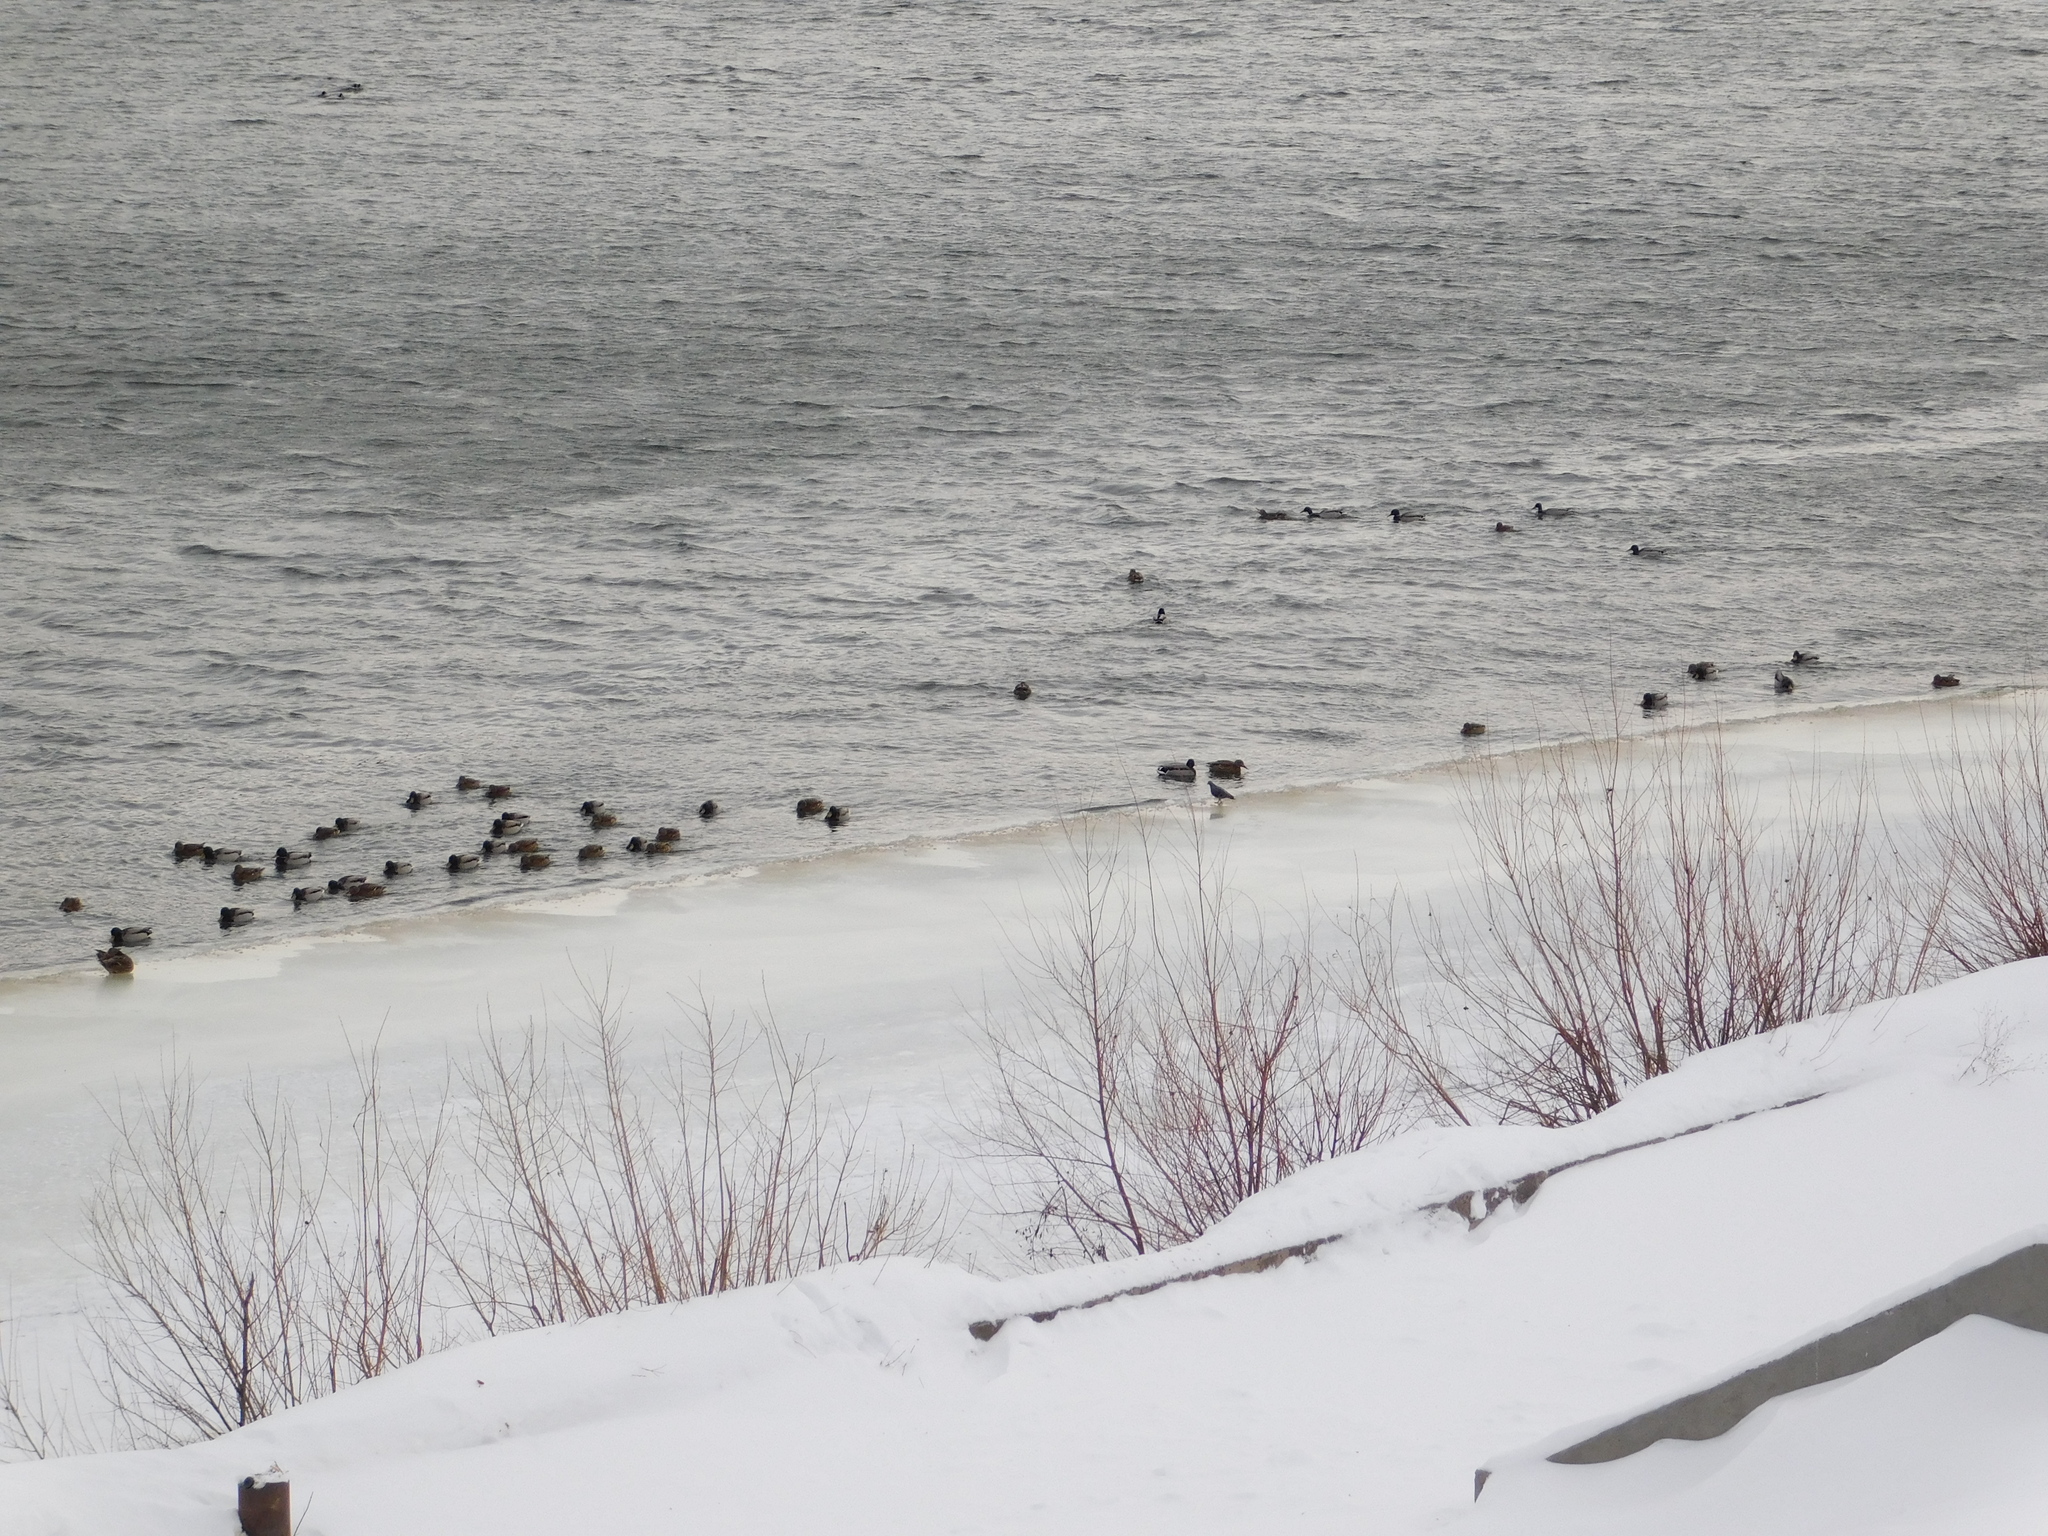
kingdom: Animalia
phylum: Chordata
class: Aves
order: Anseriformes
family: Anatidae
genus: Anas
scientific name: Anas platyrhynchos
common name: Mallard
